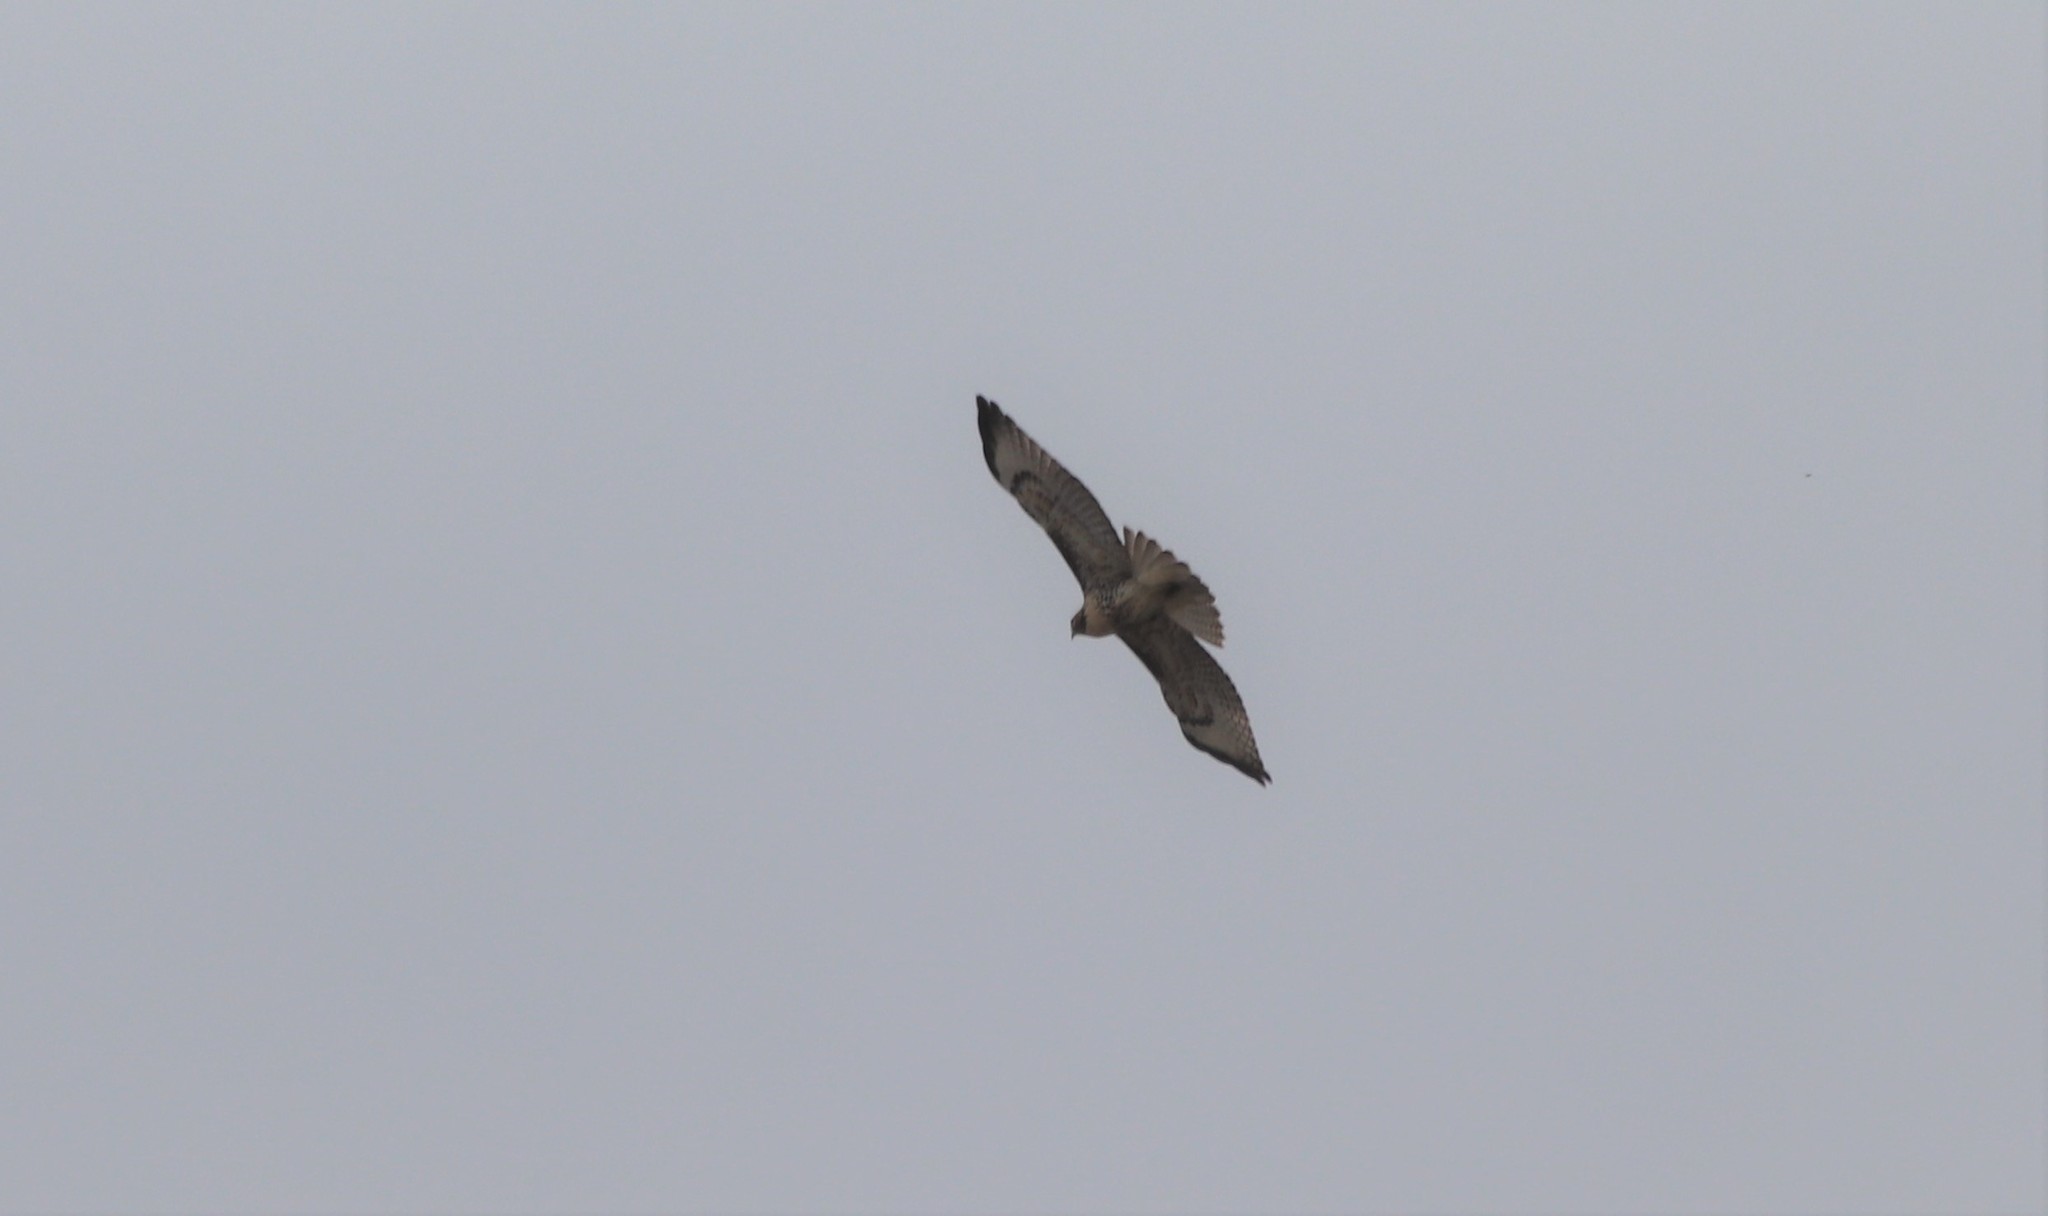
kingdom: Animalia
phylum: Chordata
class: Aves
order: Accipitriformes
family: Accipitridae
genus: Buteo
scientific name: Buteo jamaicensis
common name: Red-tailed hawk
